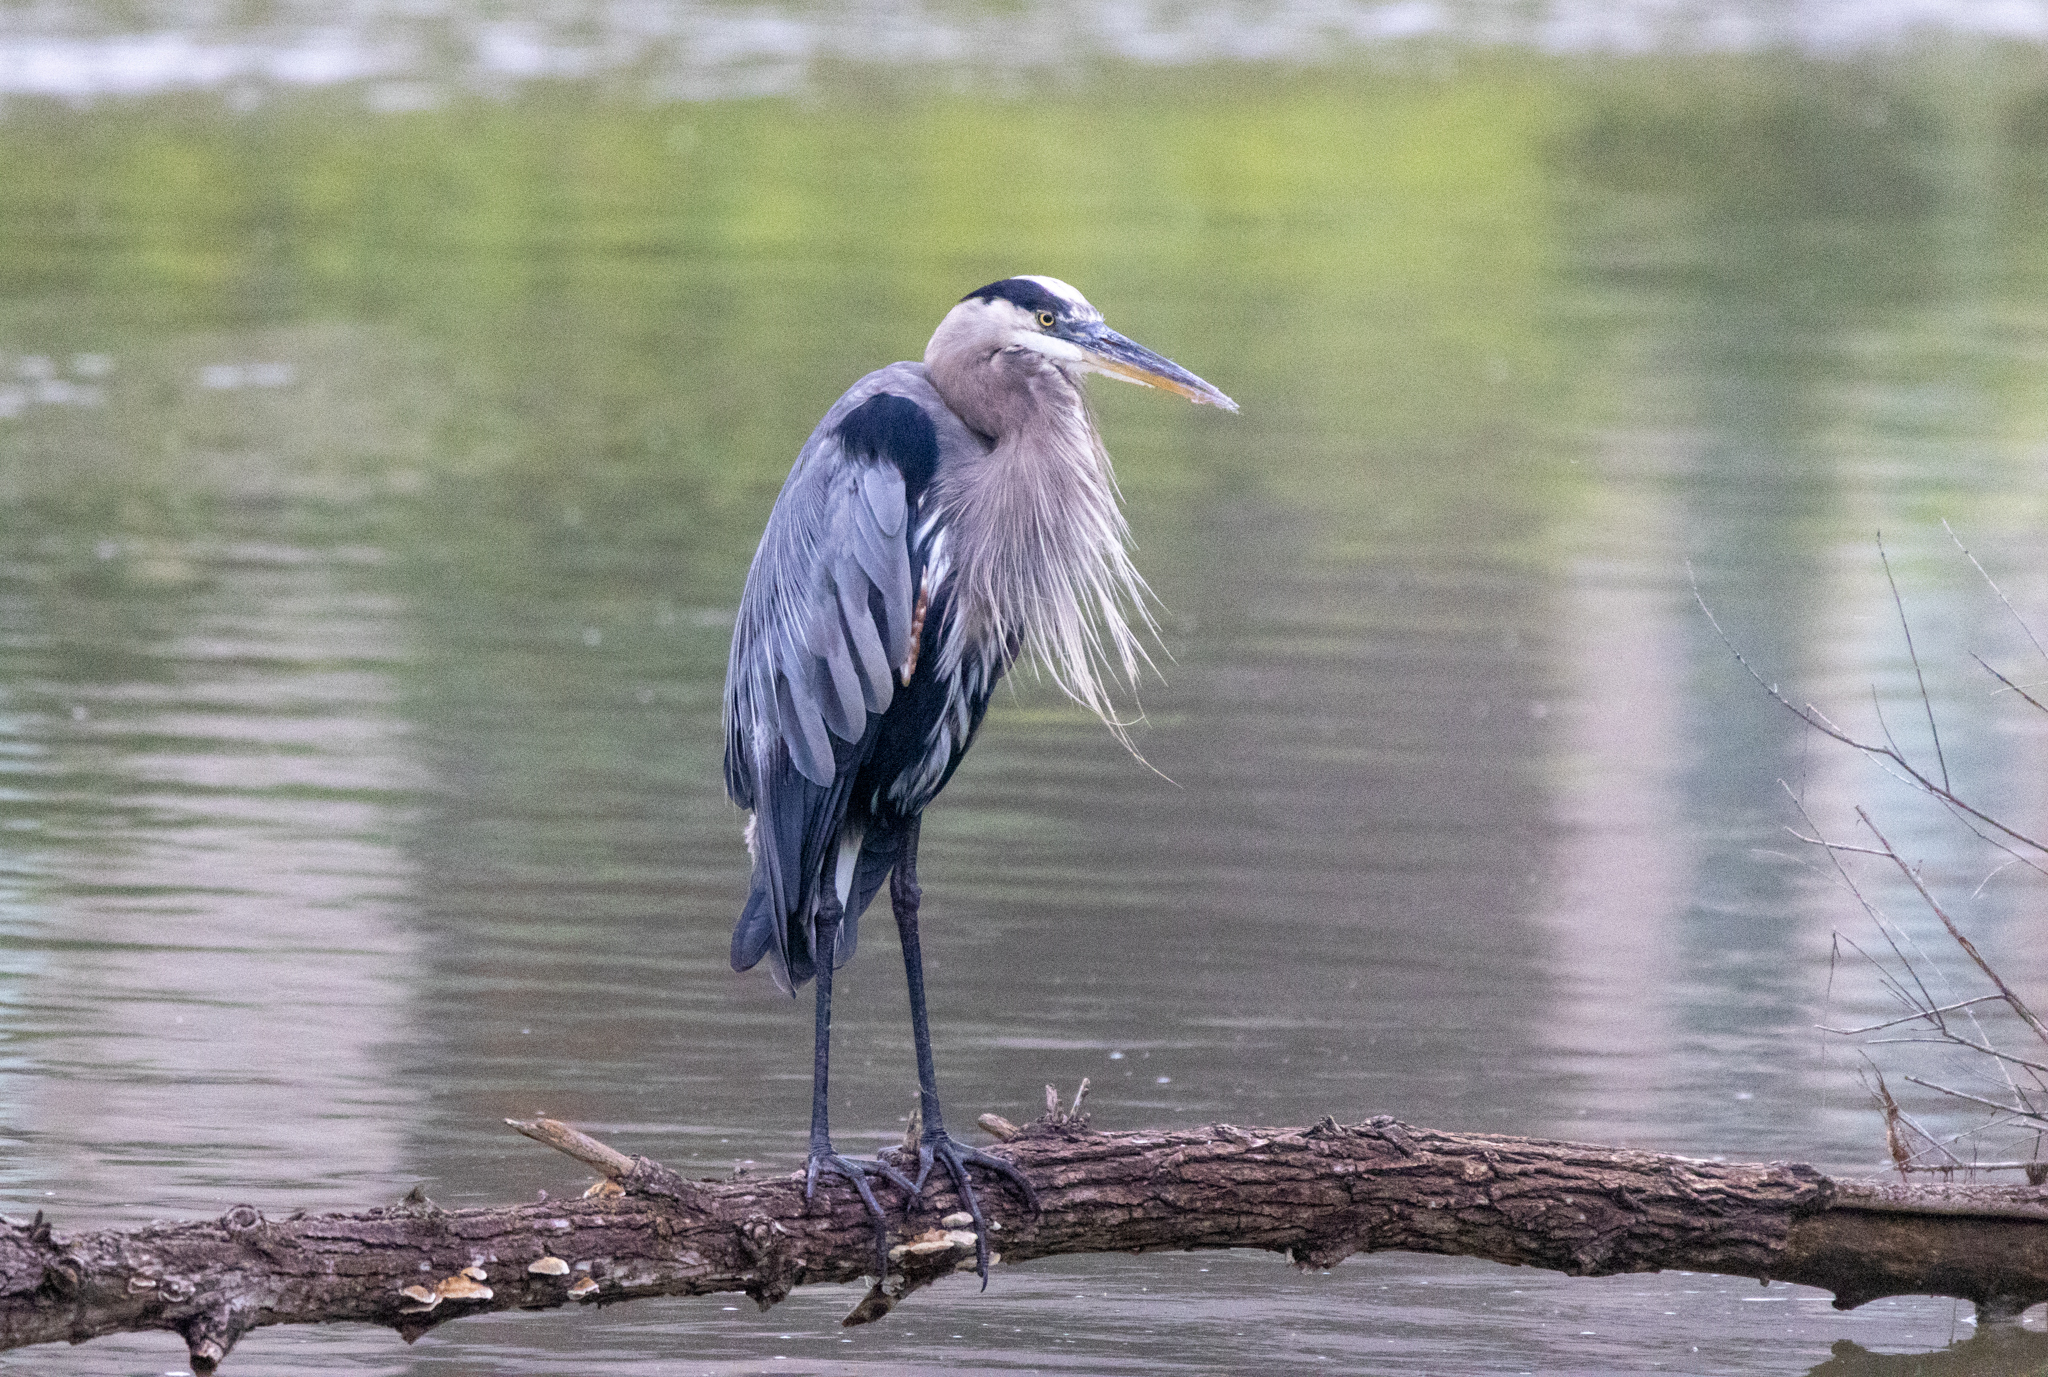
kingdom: Animalia
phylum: Chordata
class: Aves
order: Pelecaniformes
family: Ardeidae
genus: Ardea
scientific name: Ardea herodias
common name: Great blue heron
